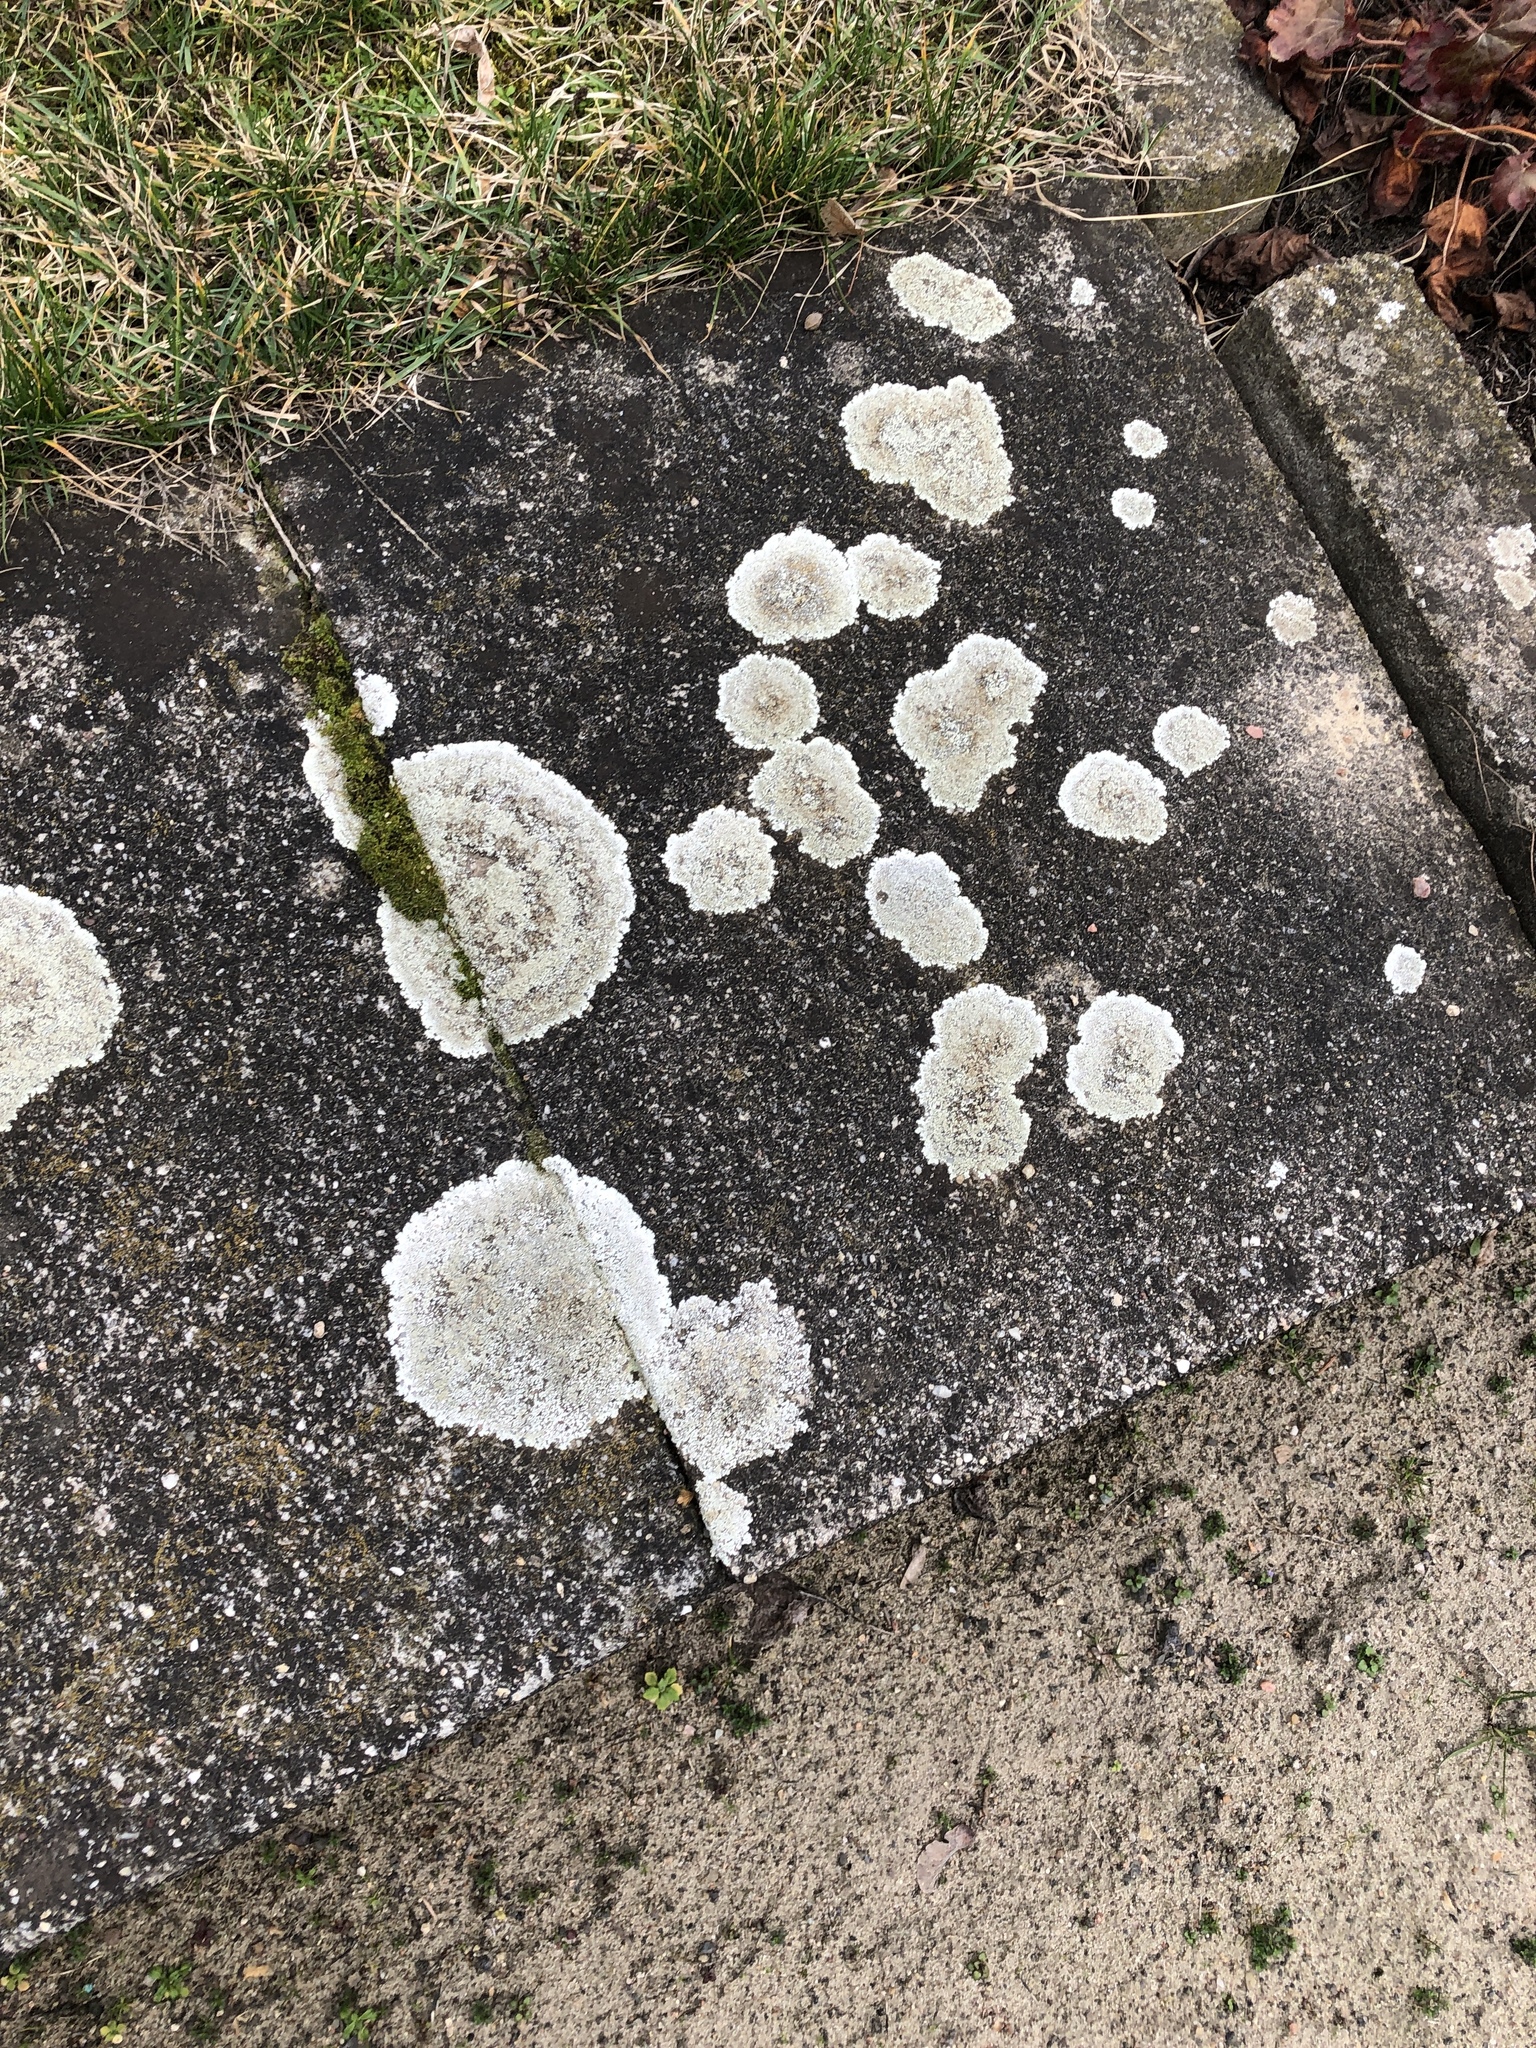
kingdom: Fungi
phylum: Ascomycota
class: Lecanoromycetes
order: Lecanorales
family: Lecanoraceae
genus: Protoparmeliopsis
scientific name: Protoparmeliopsis muralis
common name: Stonewall rim lichen
